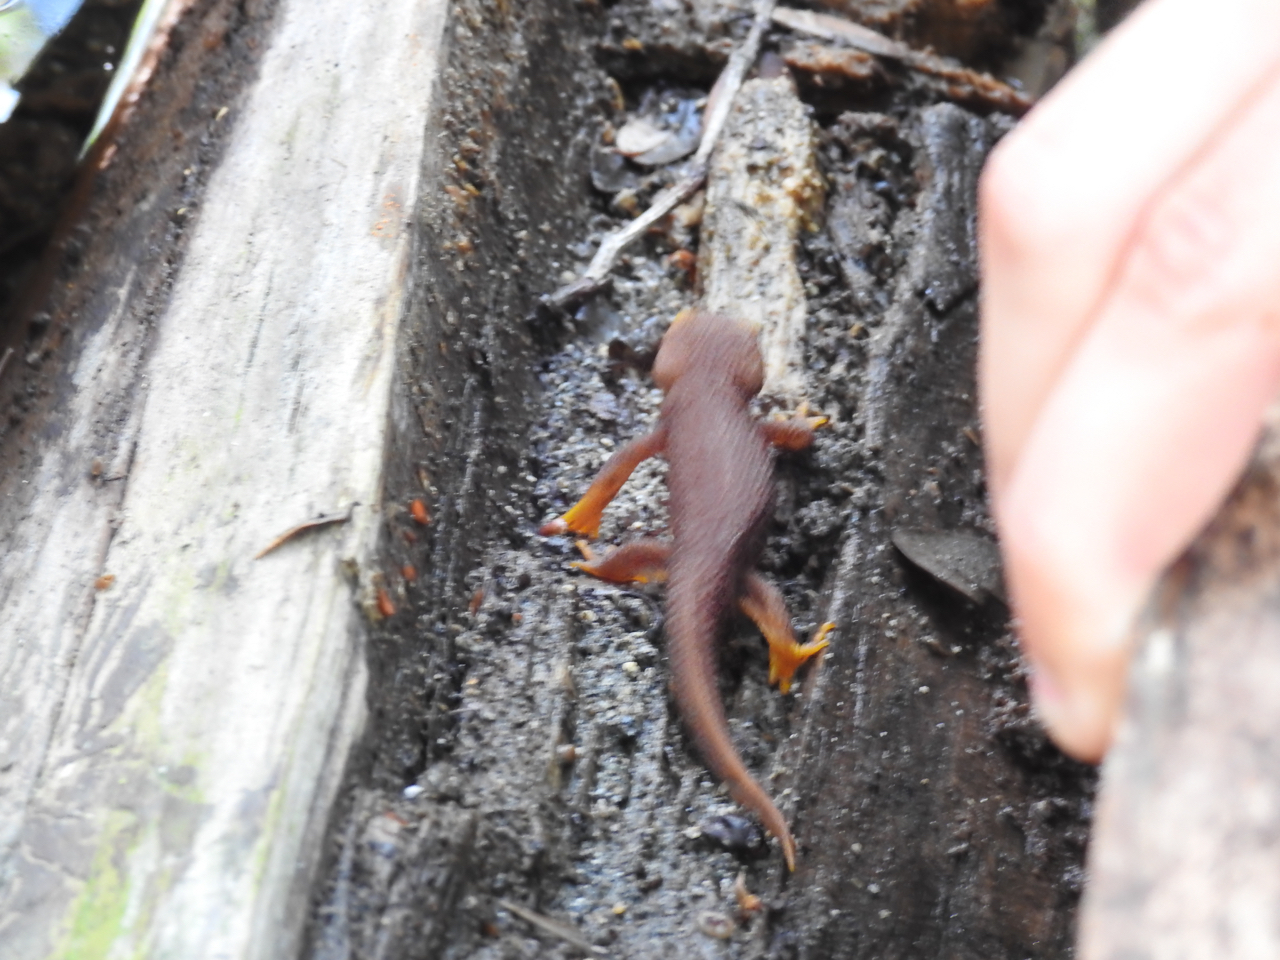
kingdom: Animalia
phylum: Chordata
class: Amphibia
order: Caudata
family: Salamandridae
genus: Taricha
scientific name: Taricha torosa
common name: California newt
